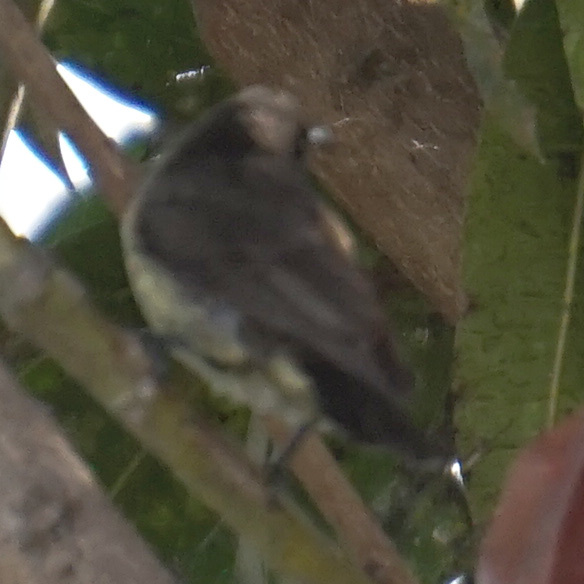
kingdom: Animalia
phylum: Chordata
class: Aves
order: Passeriformes
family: Pycnonotidae
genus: Pycnonotus
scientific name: Pycnonotus barbatus
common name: Common bulbul
